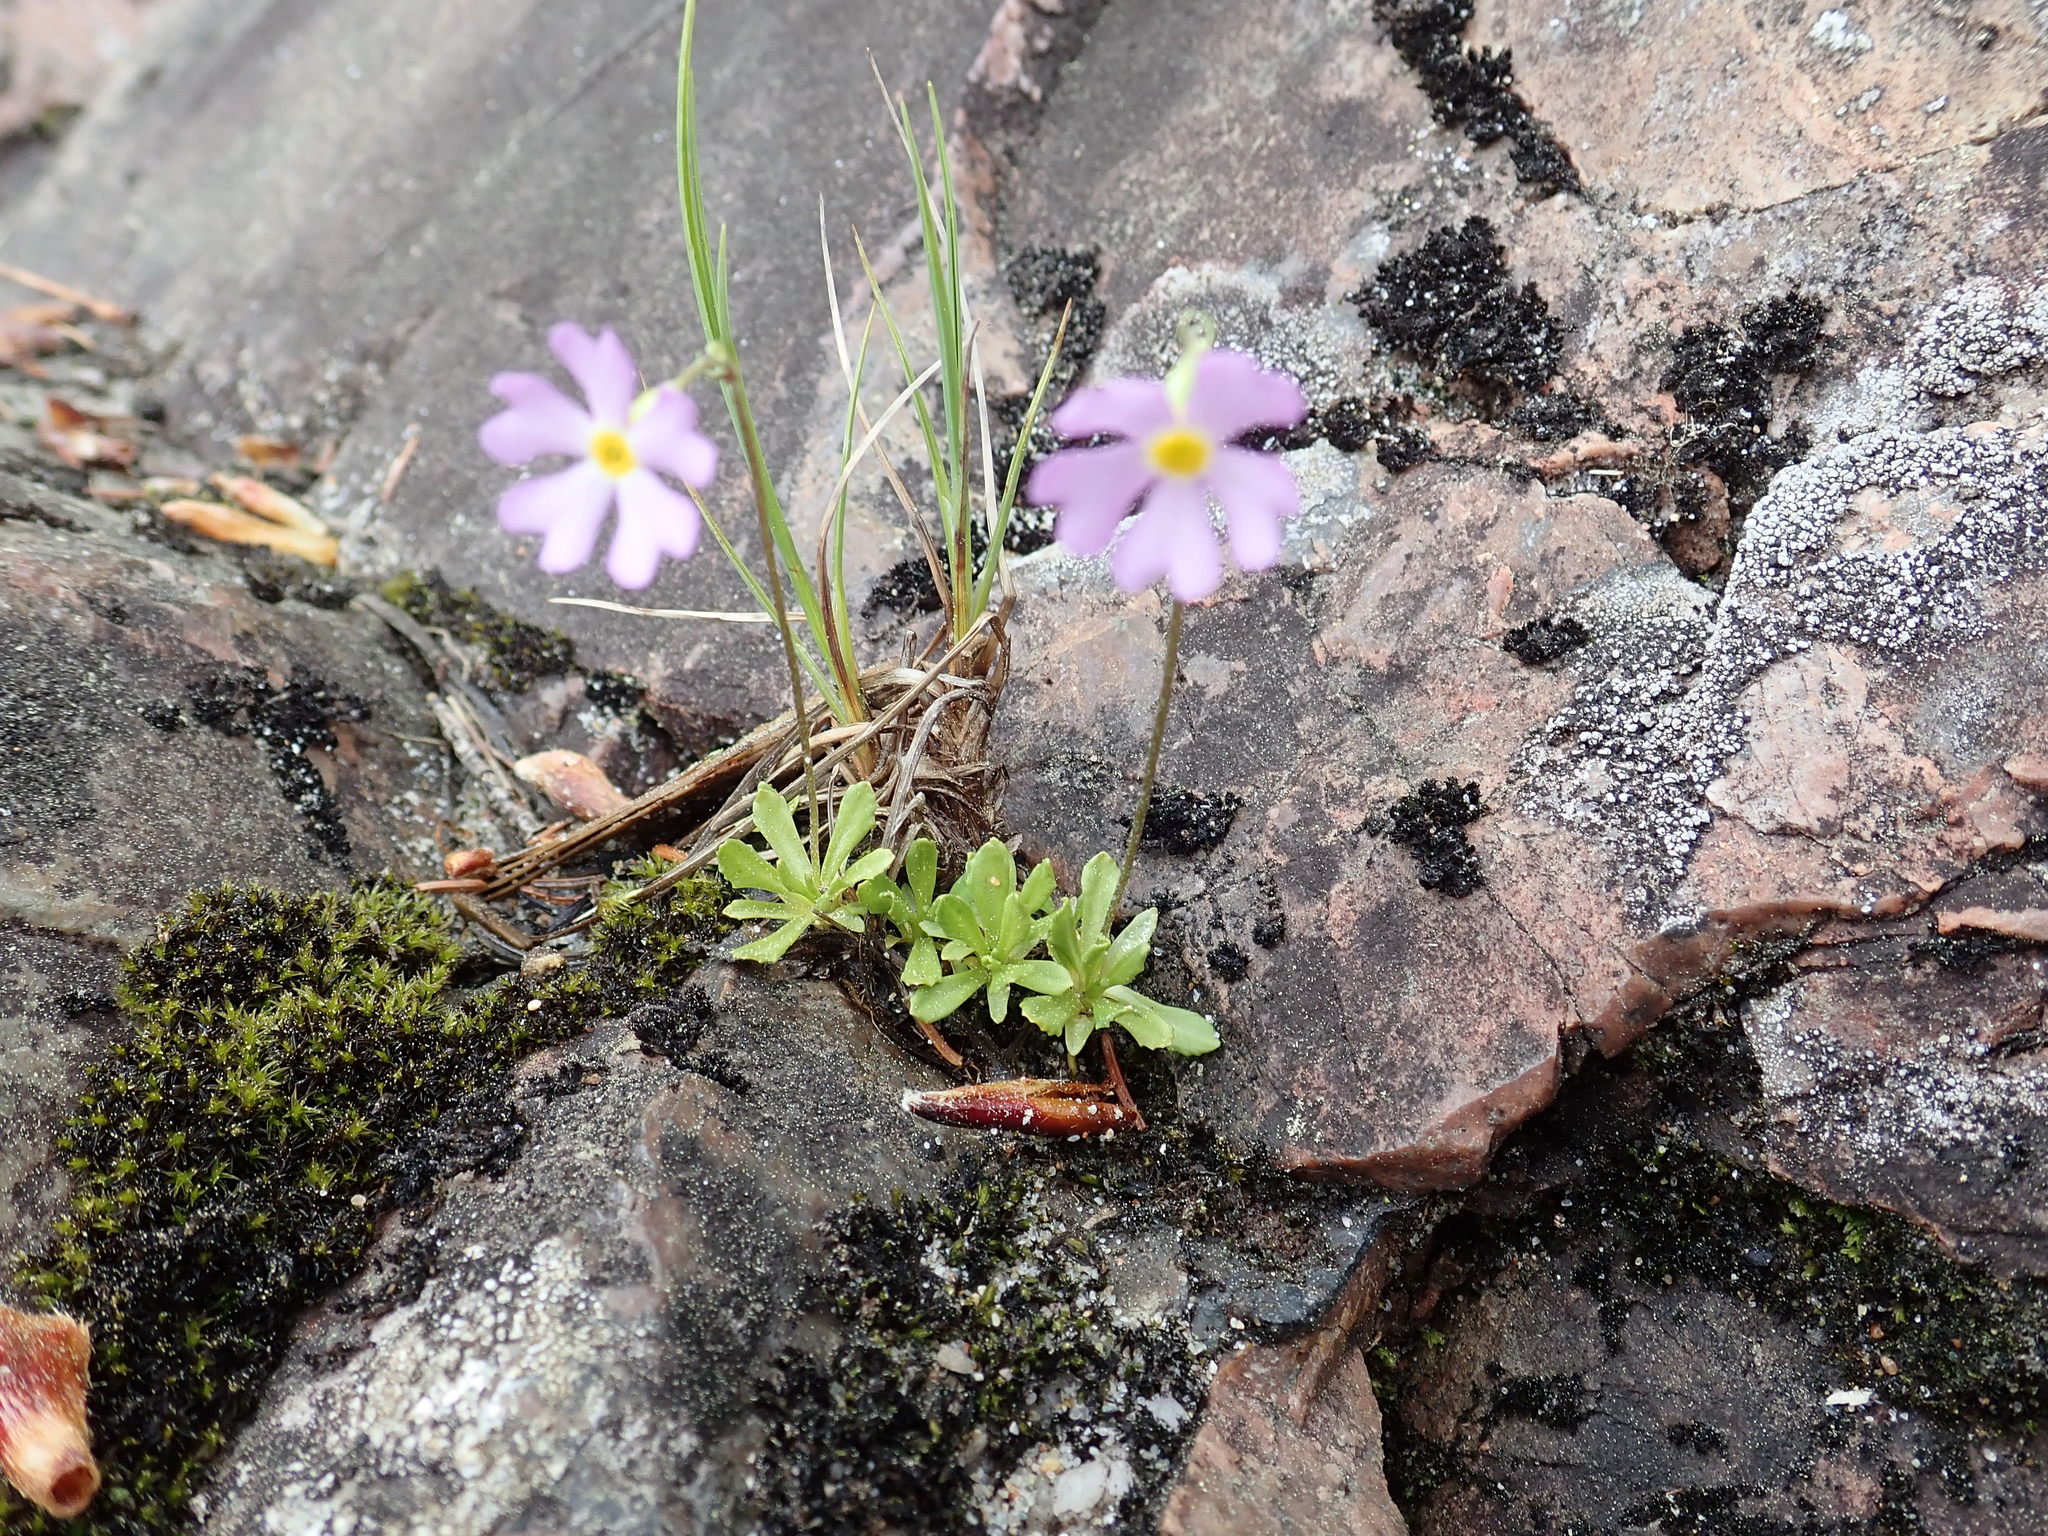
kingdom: Plantae
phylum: Tracheophyta
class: Magnoliopsida
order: Ericales
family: Primulaceae
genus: Primula
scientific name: Primula mistassinica
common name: Bird's-eye primrose
